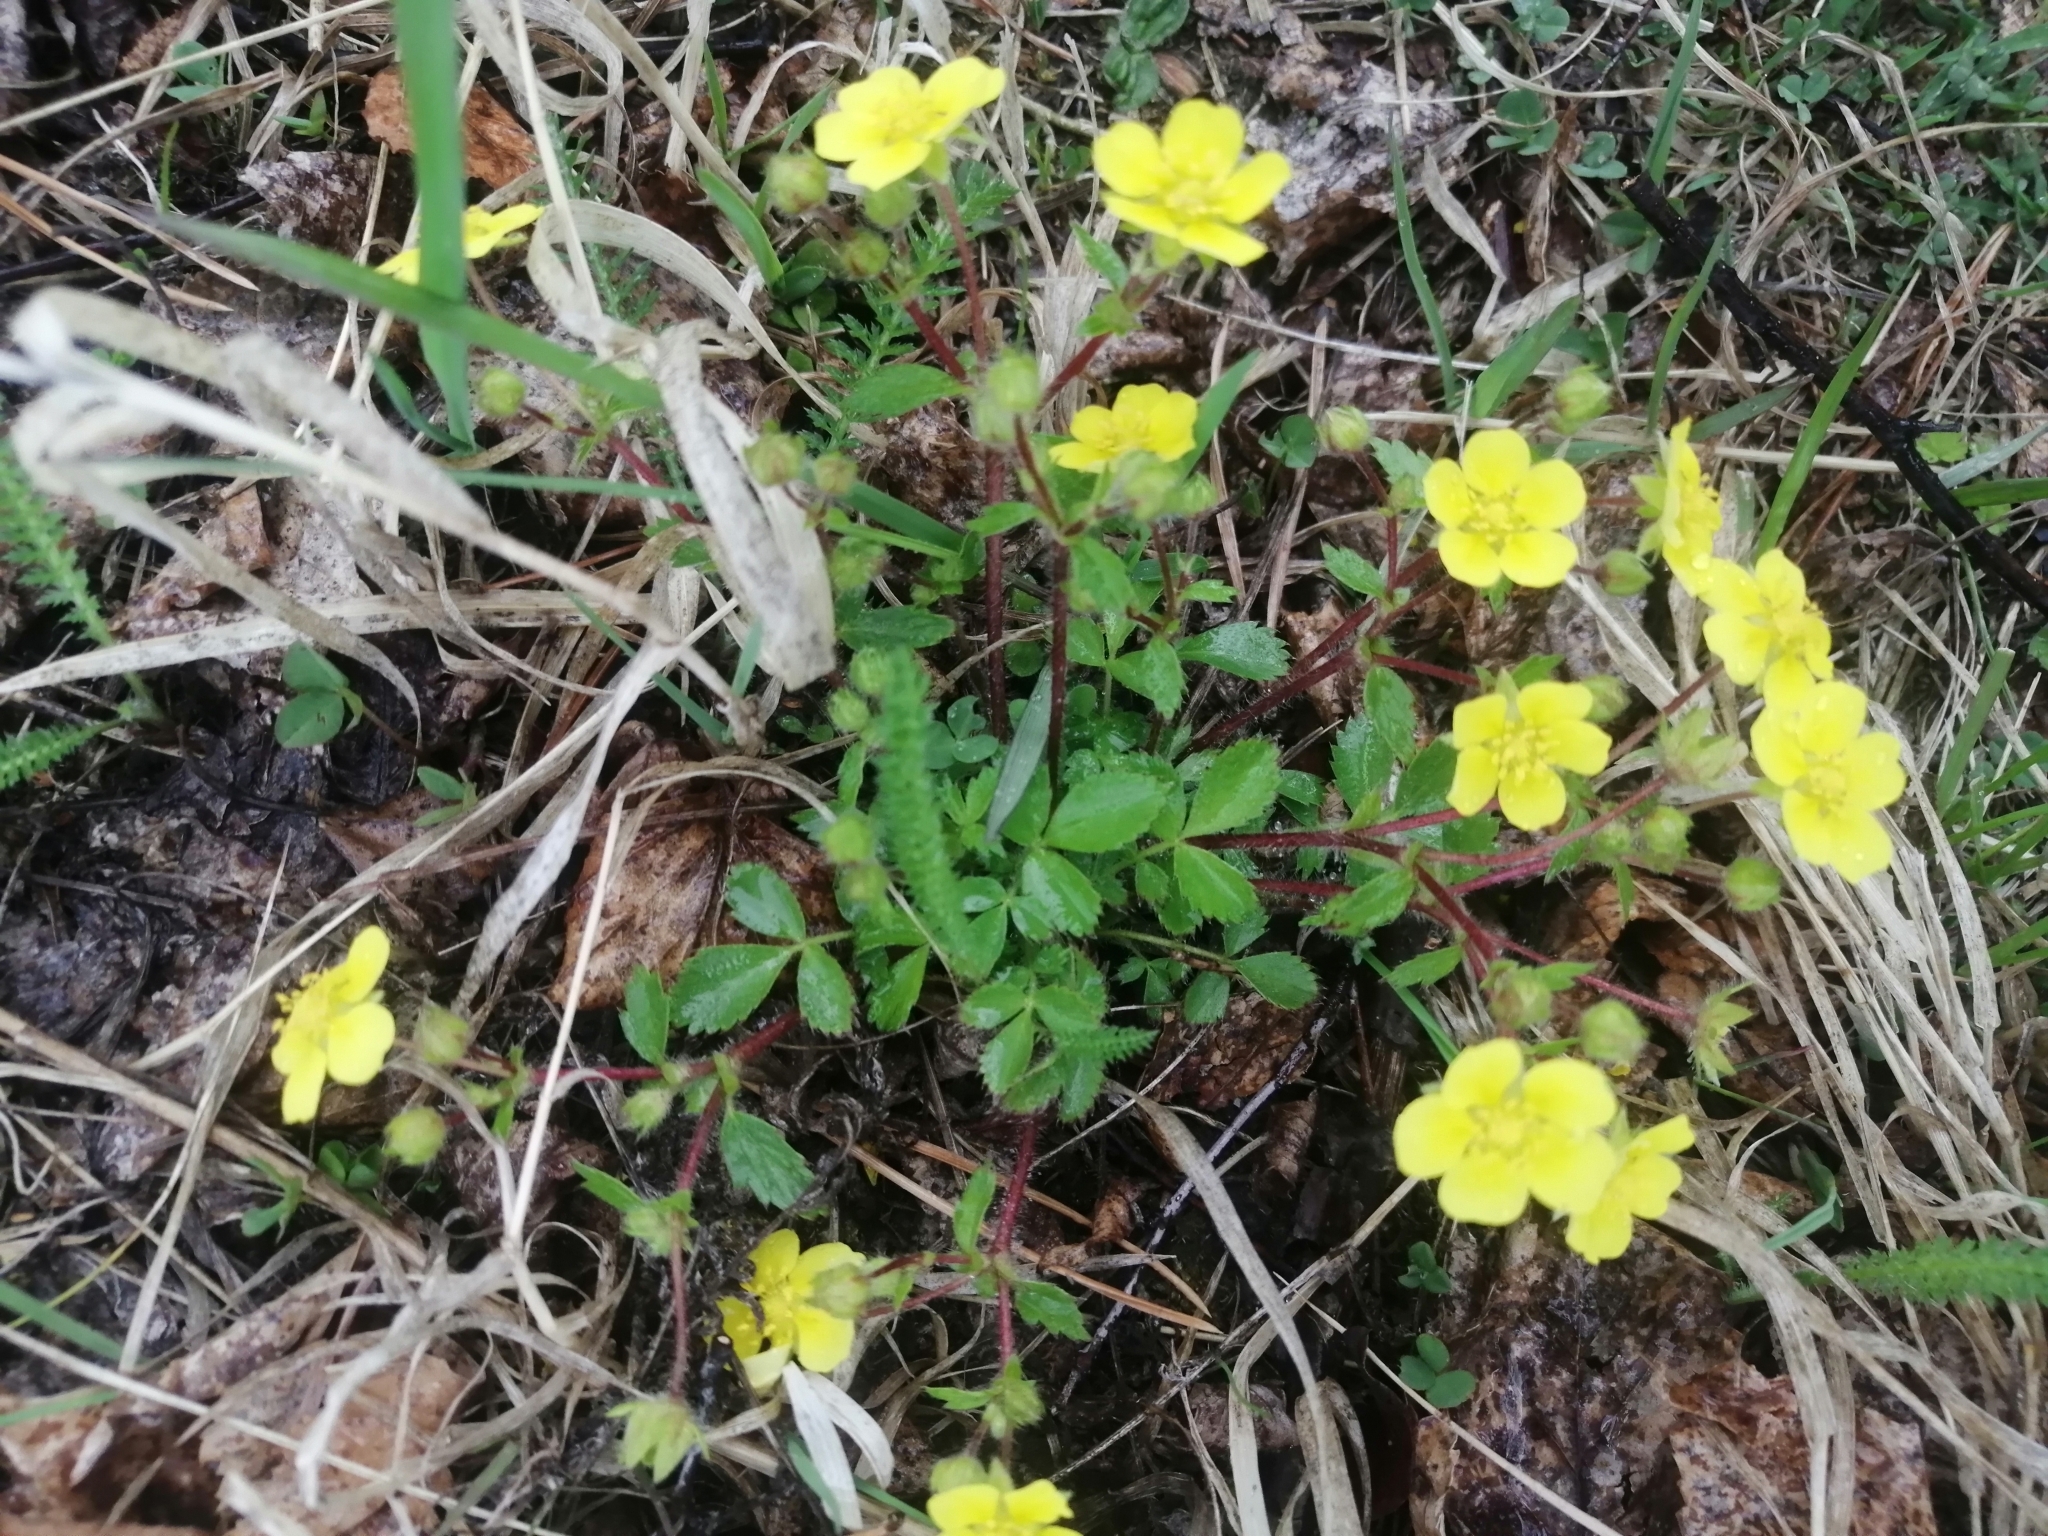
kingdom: Plantae
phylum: Tracheophyta
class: Magnoliopsida
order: Rosales
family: Rosaceae
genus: Potentilla
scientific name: Potentilla fragarioides
